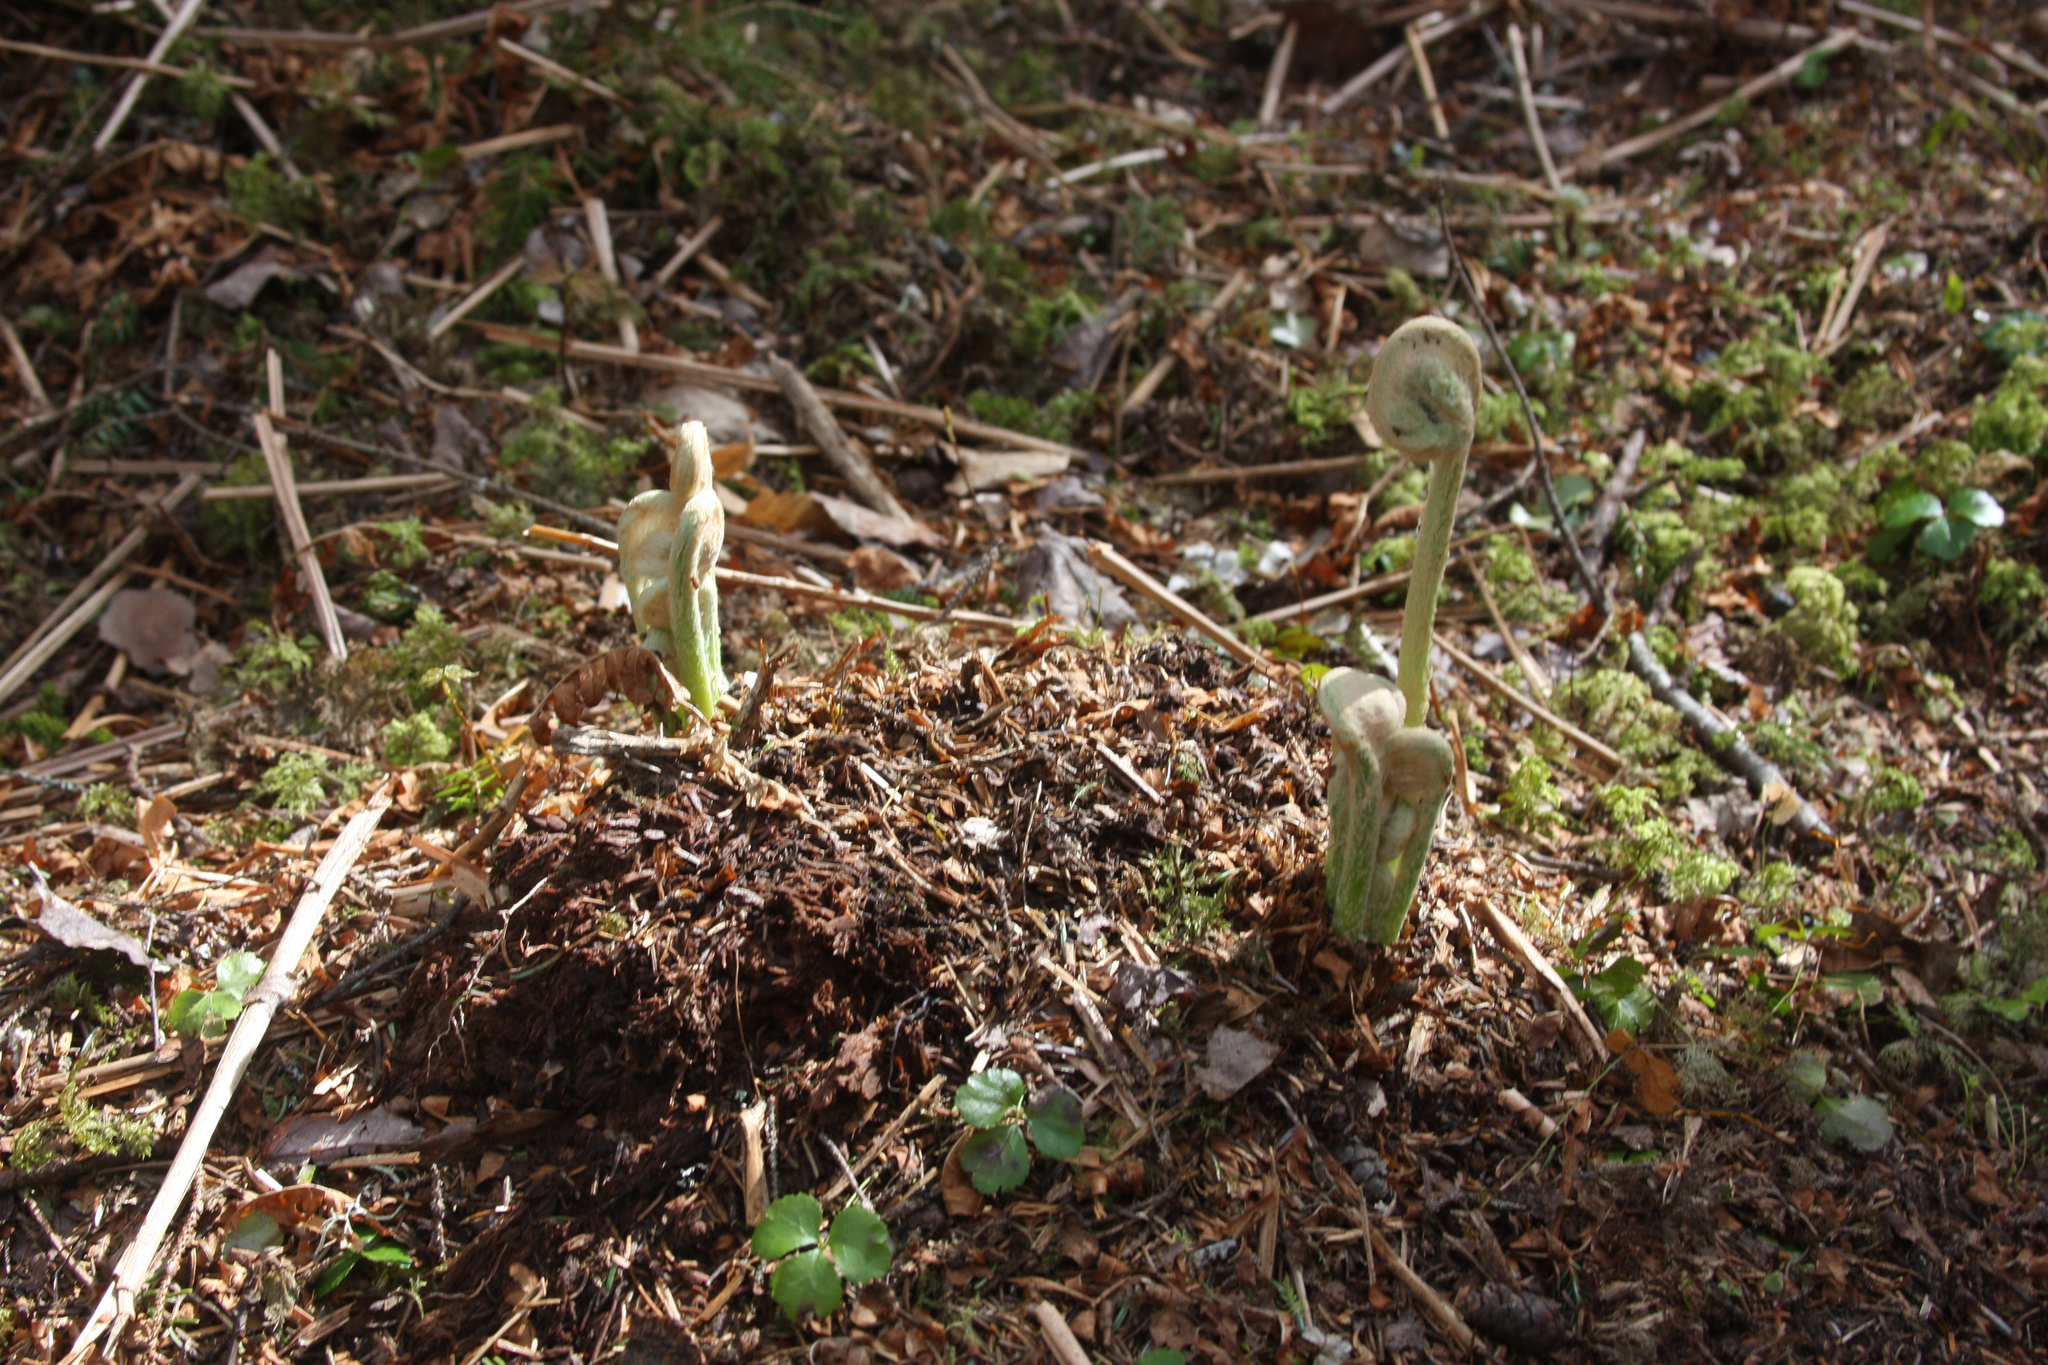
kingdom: Plantae
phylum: Tracheophyta
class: Magnoliopsida
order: Ranunculales
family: Ranunculaceae
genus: Coptis
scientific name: Coptis trifolia
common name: Canker-root
